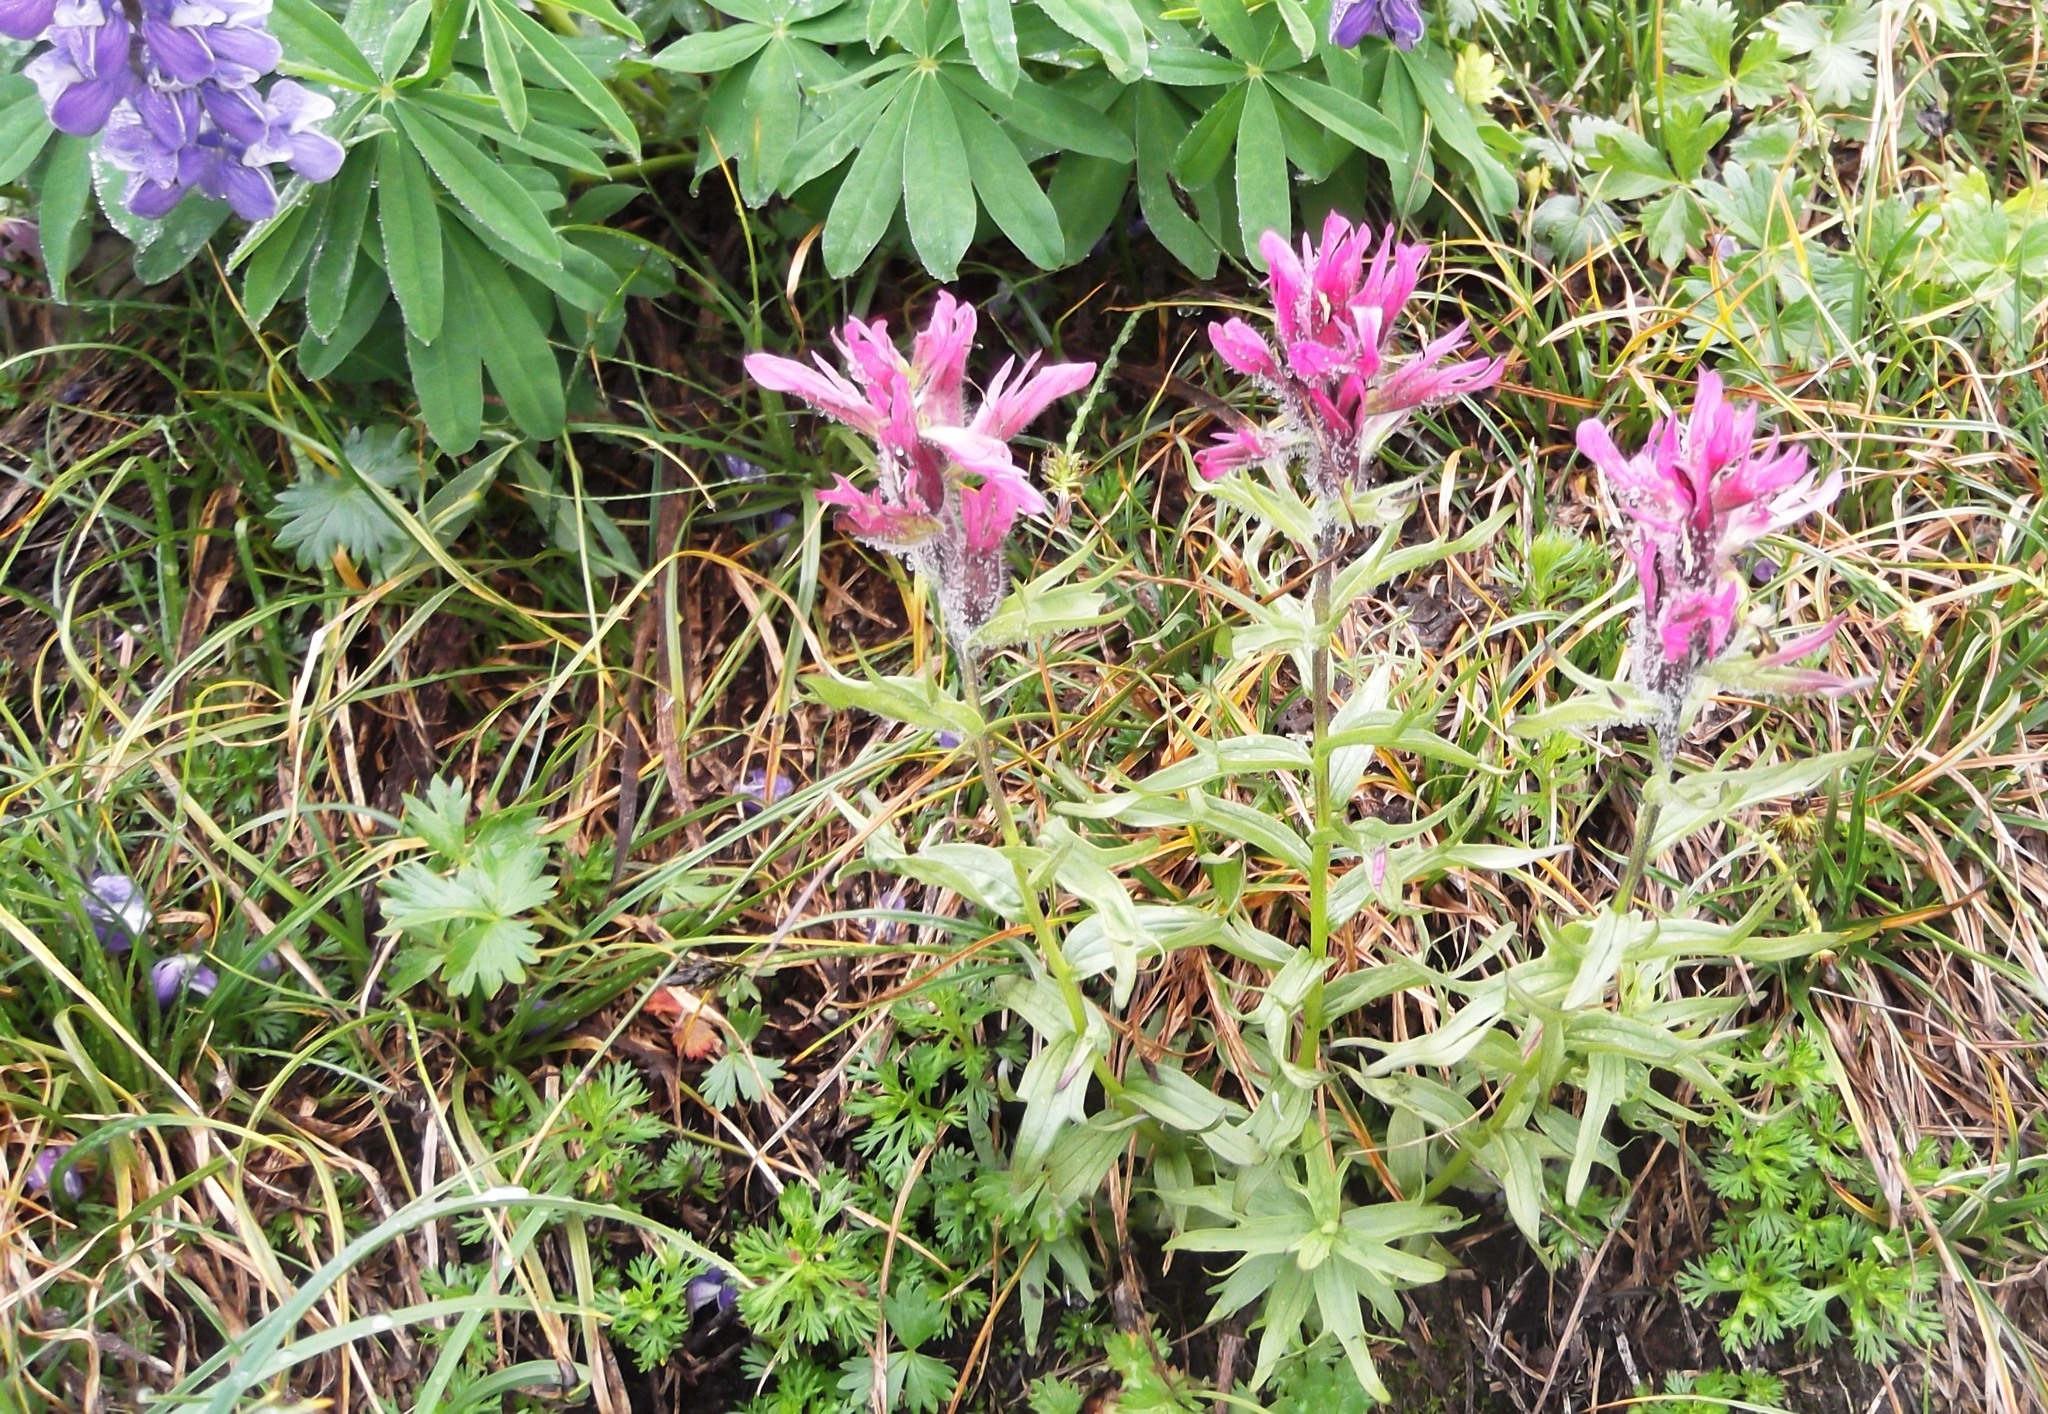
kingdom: Plantae
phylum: Tracheophyta
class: Magnoliopsida
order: Lamiales
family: Orobanchaceae
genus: Castilleja
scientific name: Castilleja parviflora
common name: Mountain paintbrush
